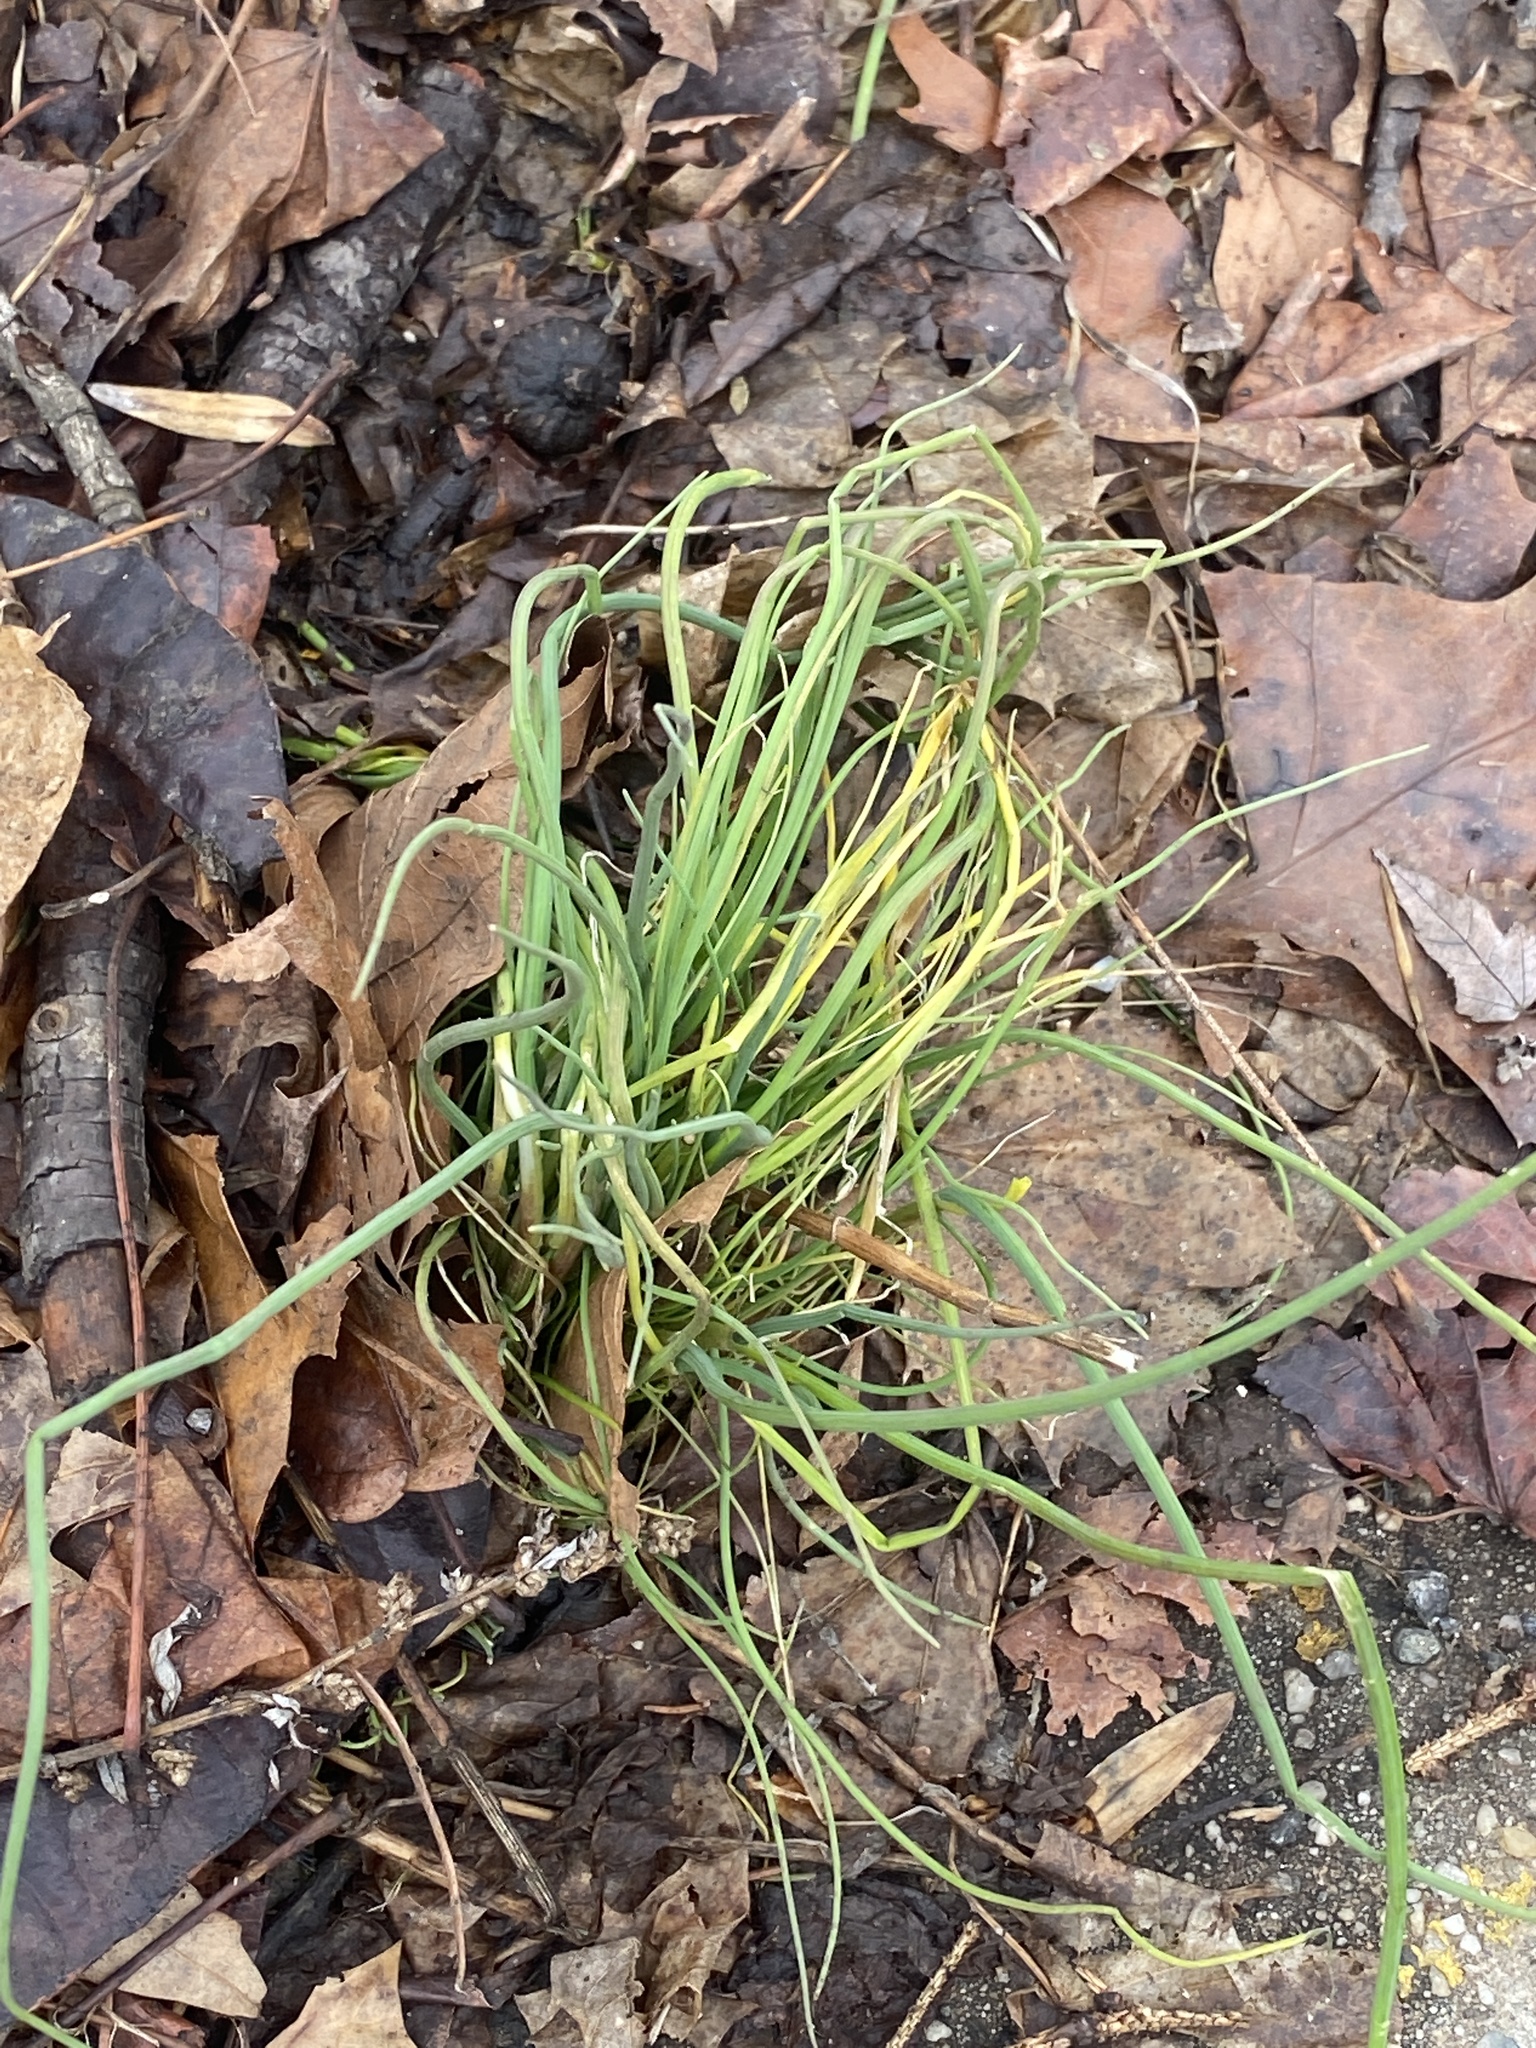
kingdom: Plantae
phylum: Tracheophyta
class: Liliopsida
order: Asparagales
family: Amaryllidaceae
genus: Allium
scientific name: Allium vineale
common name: Crow garlic
